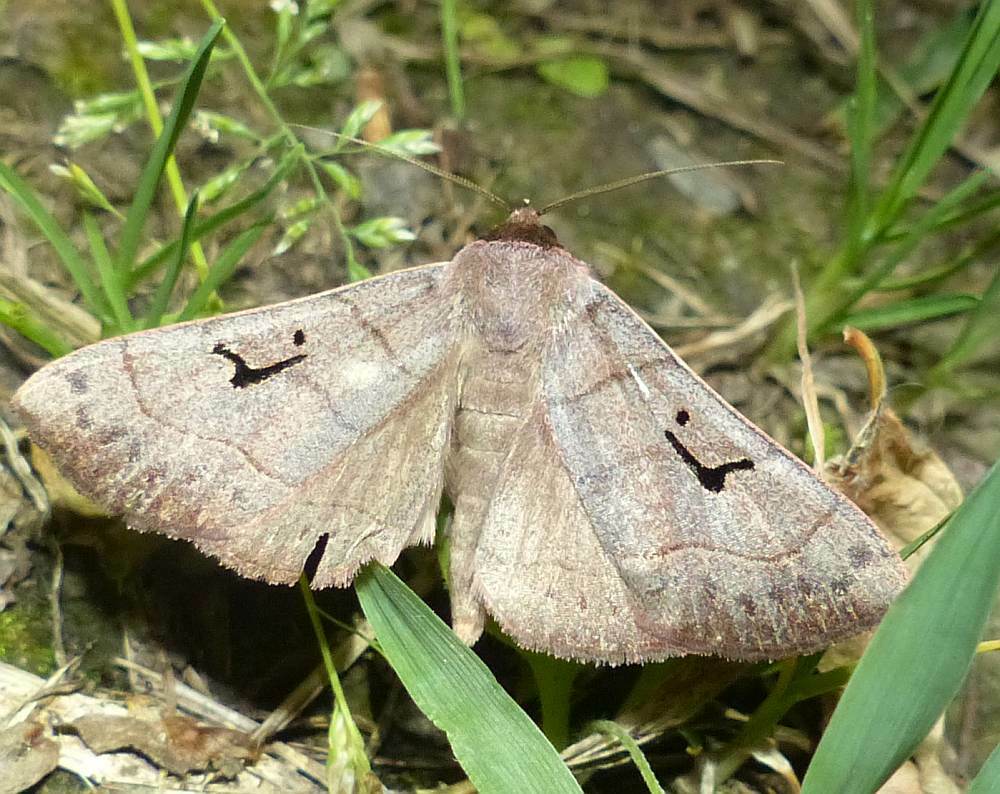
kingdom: Animalia
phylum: Arthropoda
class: Insecta
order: Lepidoptera
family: Erebidae
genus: Panopoda
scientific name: Panopoda carneicosta
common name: Brown panopoda moth
